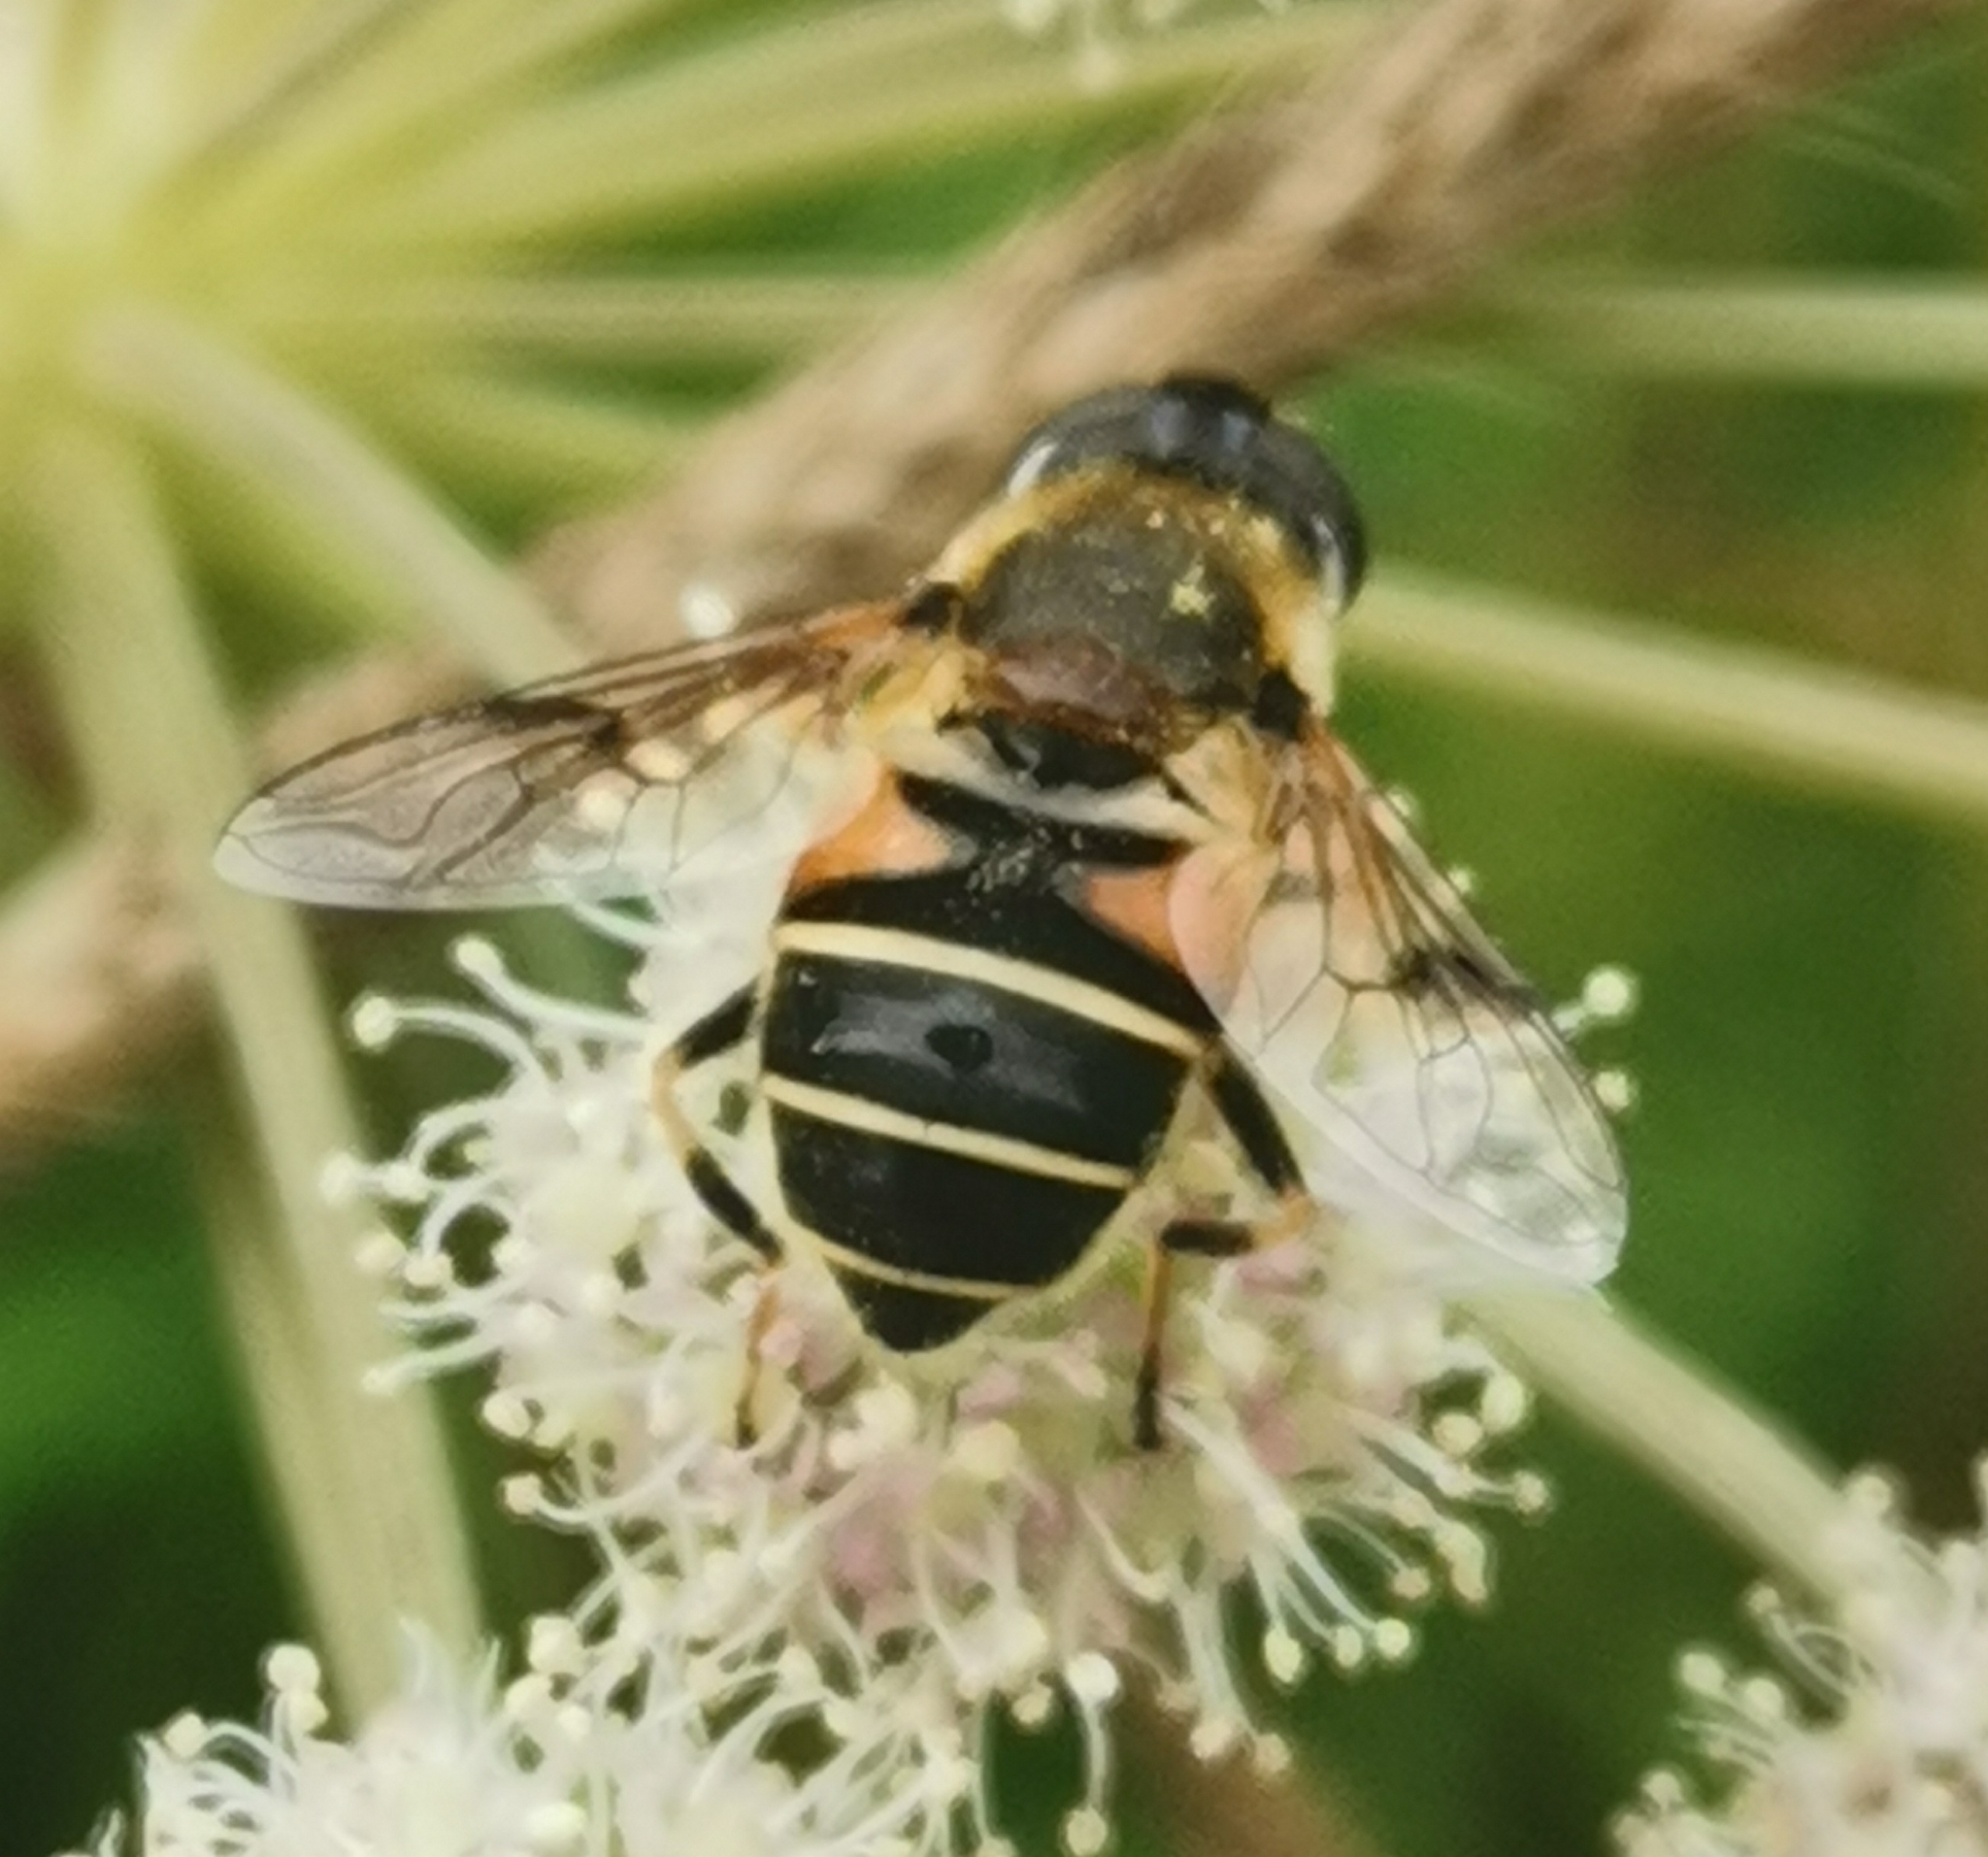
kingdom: Animalia
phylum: Arthropoda
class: Insecta
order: Diptera
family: Syrphidae
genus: Eristalis
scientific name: Eristalis obscura
